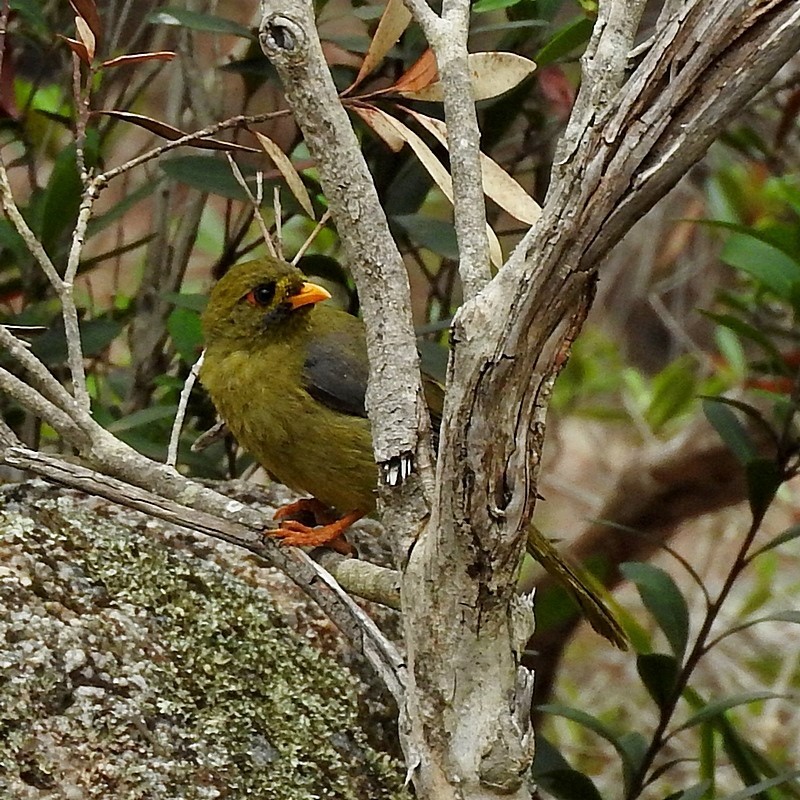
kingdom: Animalia
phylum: Chordata
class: Aves
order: Passeriformes
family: Meliphagidae
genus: Manorina
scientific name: Manorina melanophrys
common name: Bell miner
